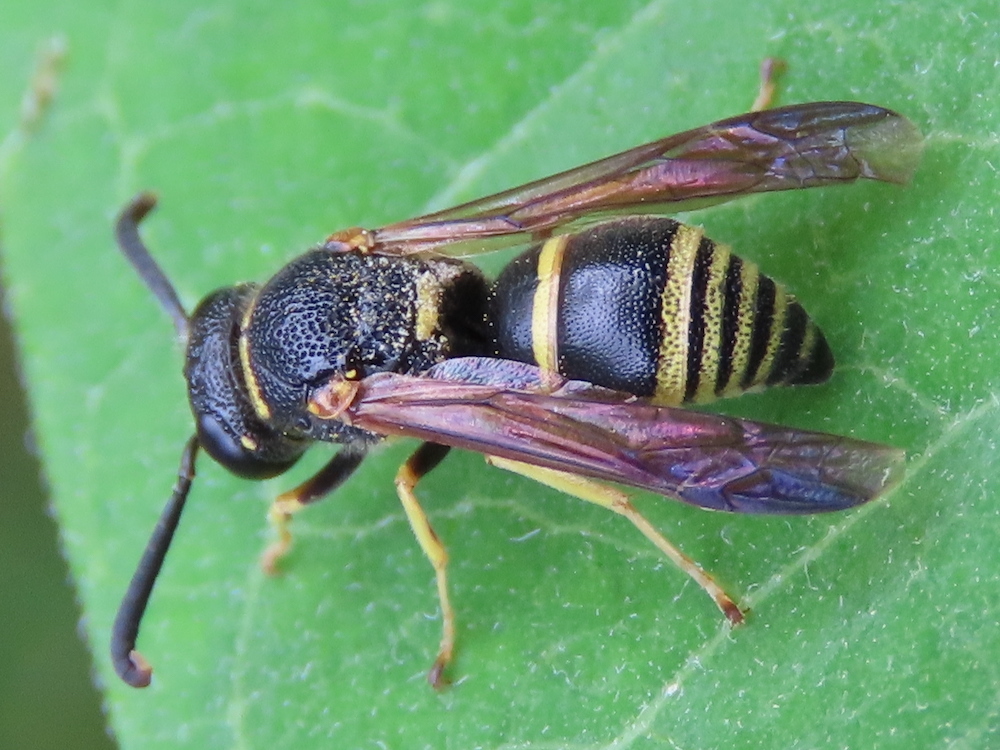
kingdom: Animalia
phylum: Arthropoda
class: Insecta
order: Hymenoptera
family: Eumenidae
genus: Euodynerus
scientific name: Euodynerus foraminatus
